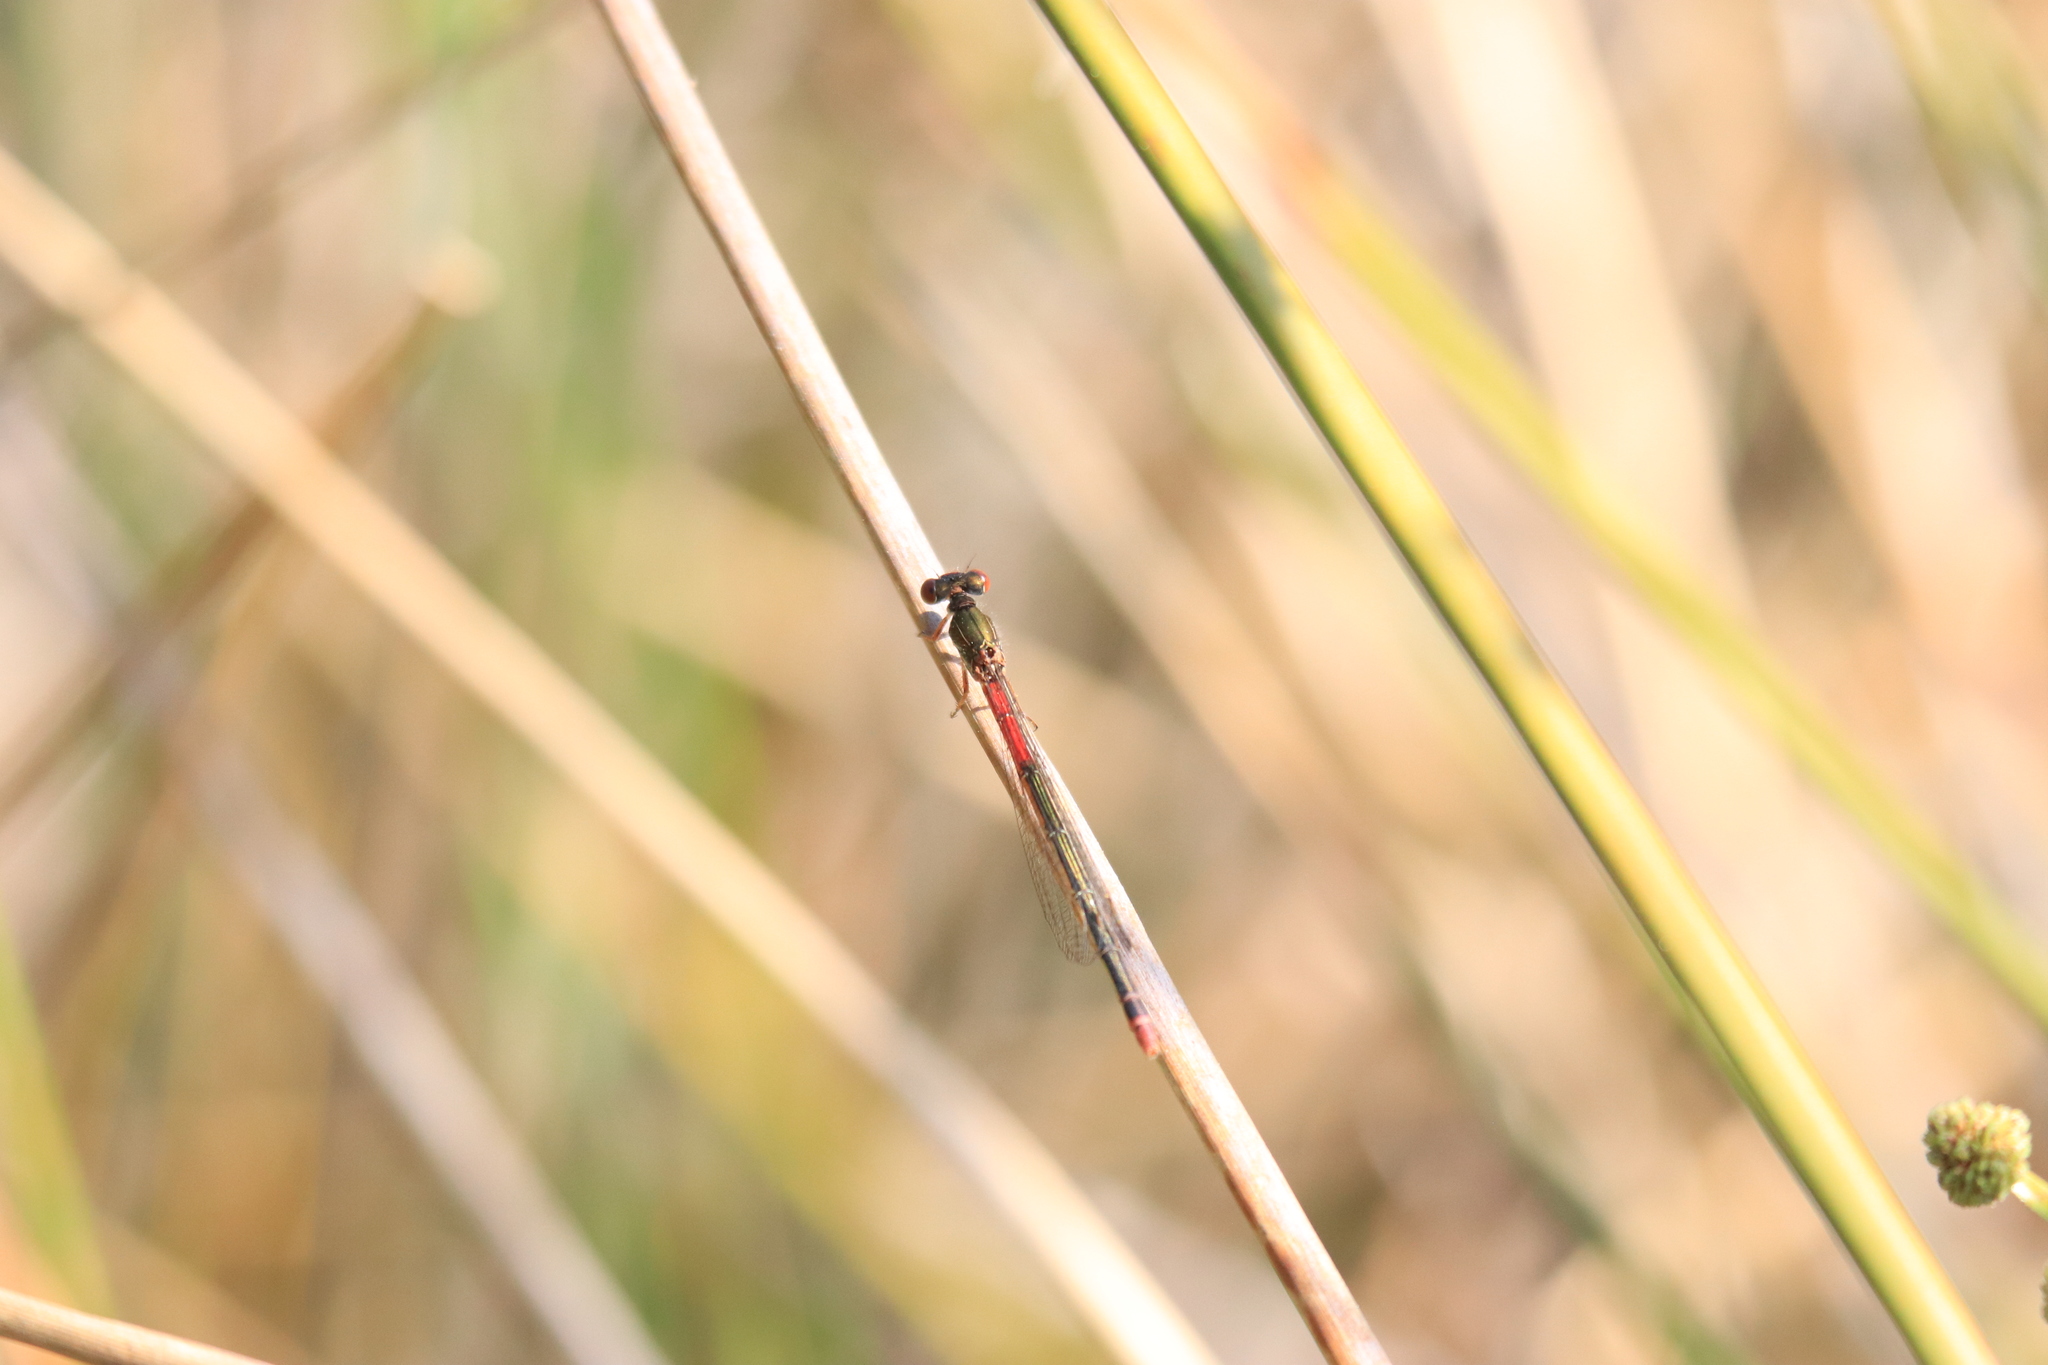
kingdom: Animalia
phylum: Arthropoda
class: Insecta
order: Odonata
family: Coenagrionidae
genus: Ceriagrion
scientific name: Ceriagrion tenellum
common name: Small red damselfly
